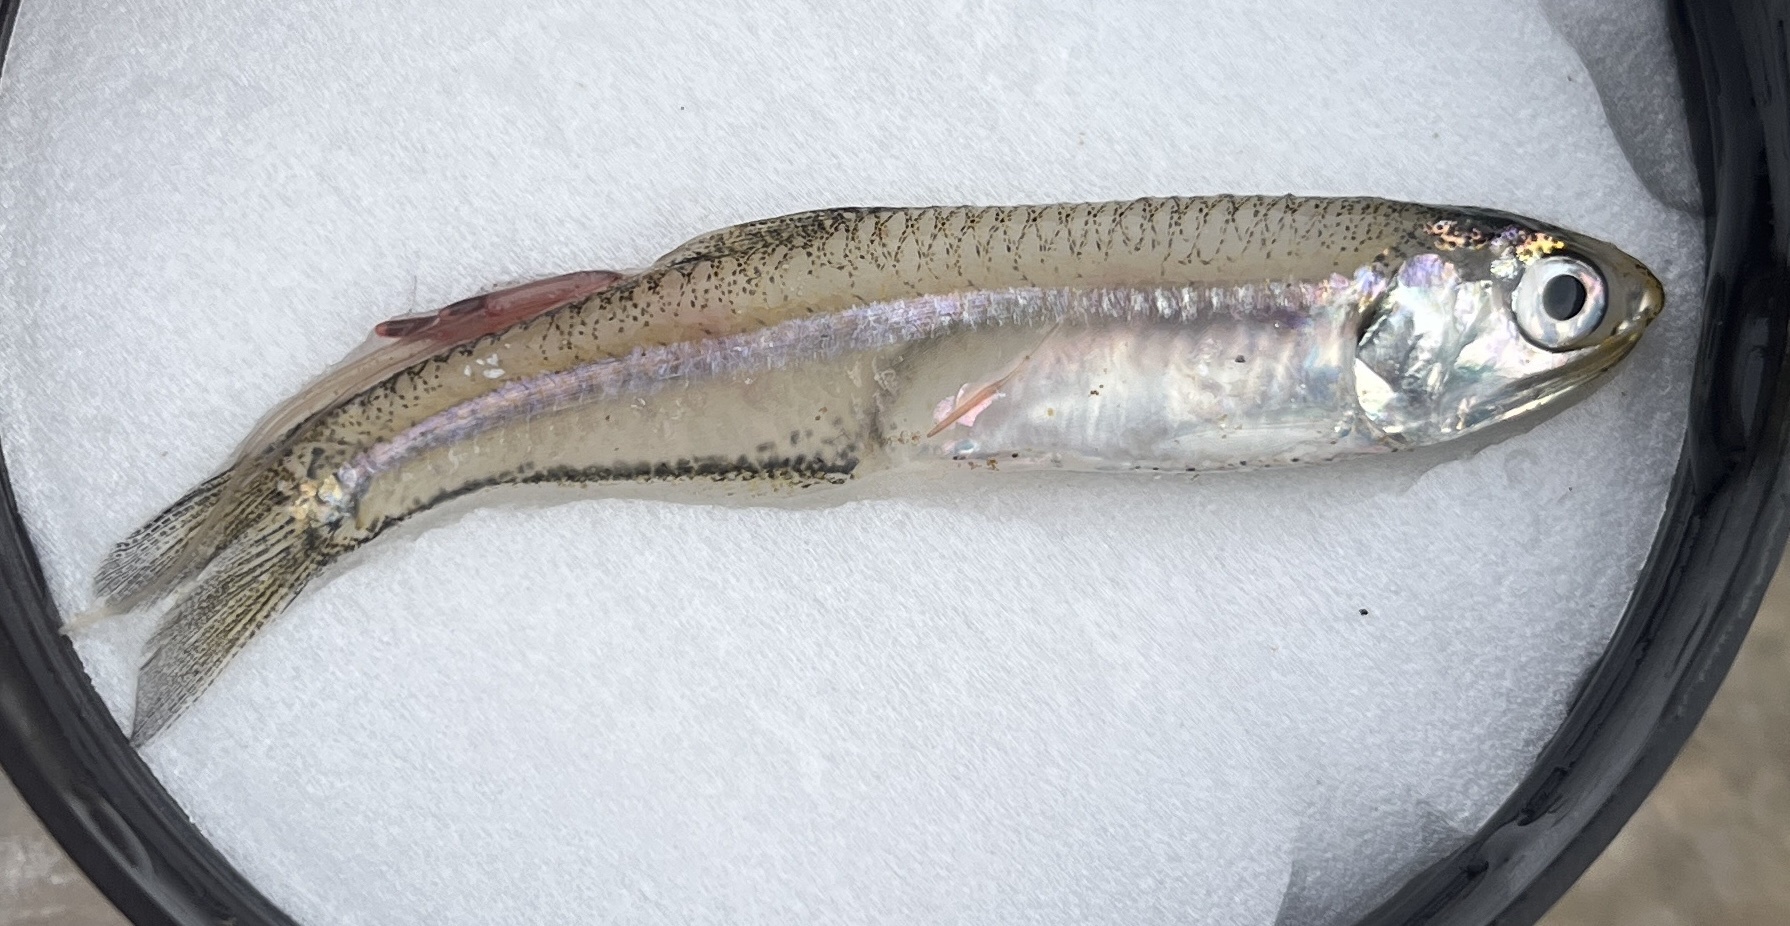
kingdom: Animalia
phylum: Chordata
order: Clupeiformes
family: Engraulidae
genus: Anchoa
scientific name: Anchoa mitchilli
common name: Bay anchovy
